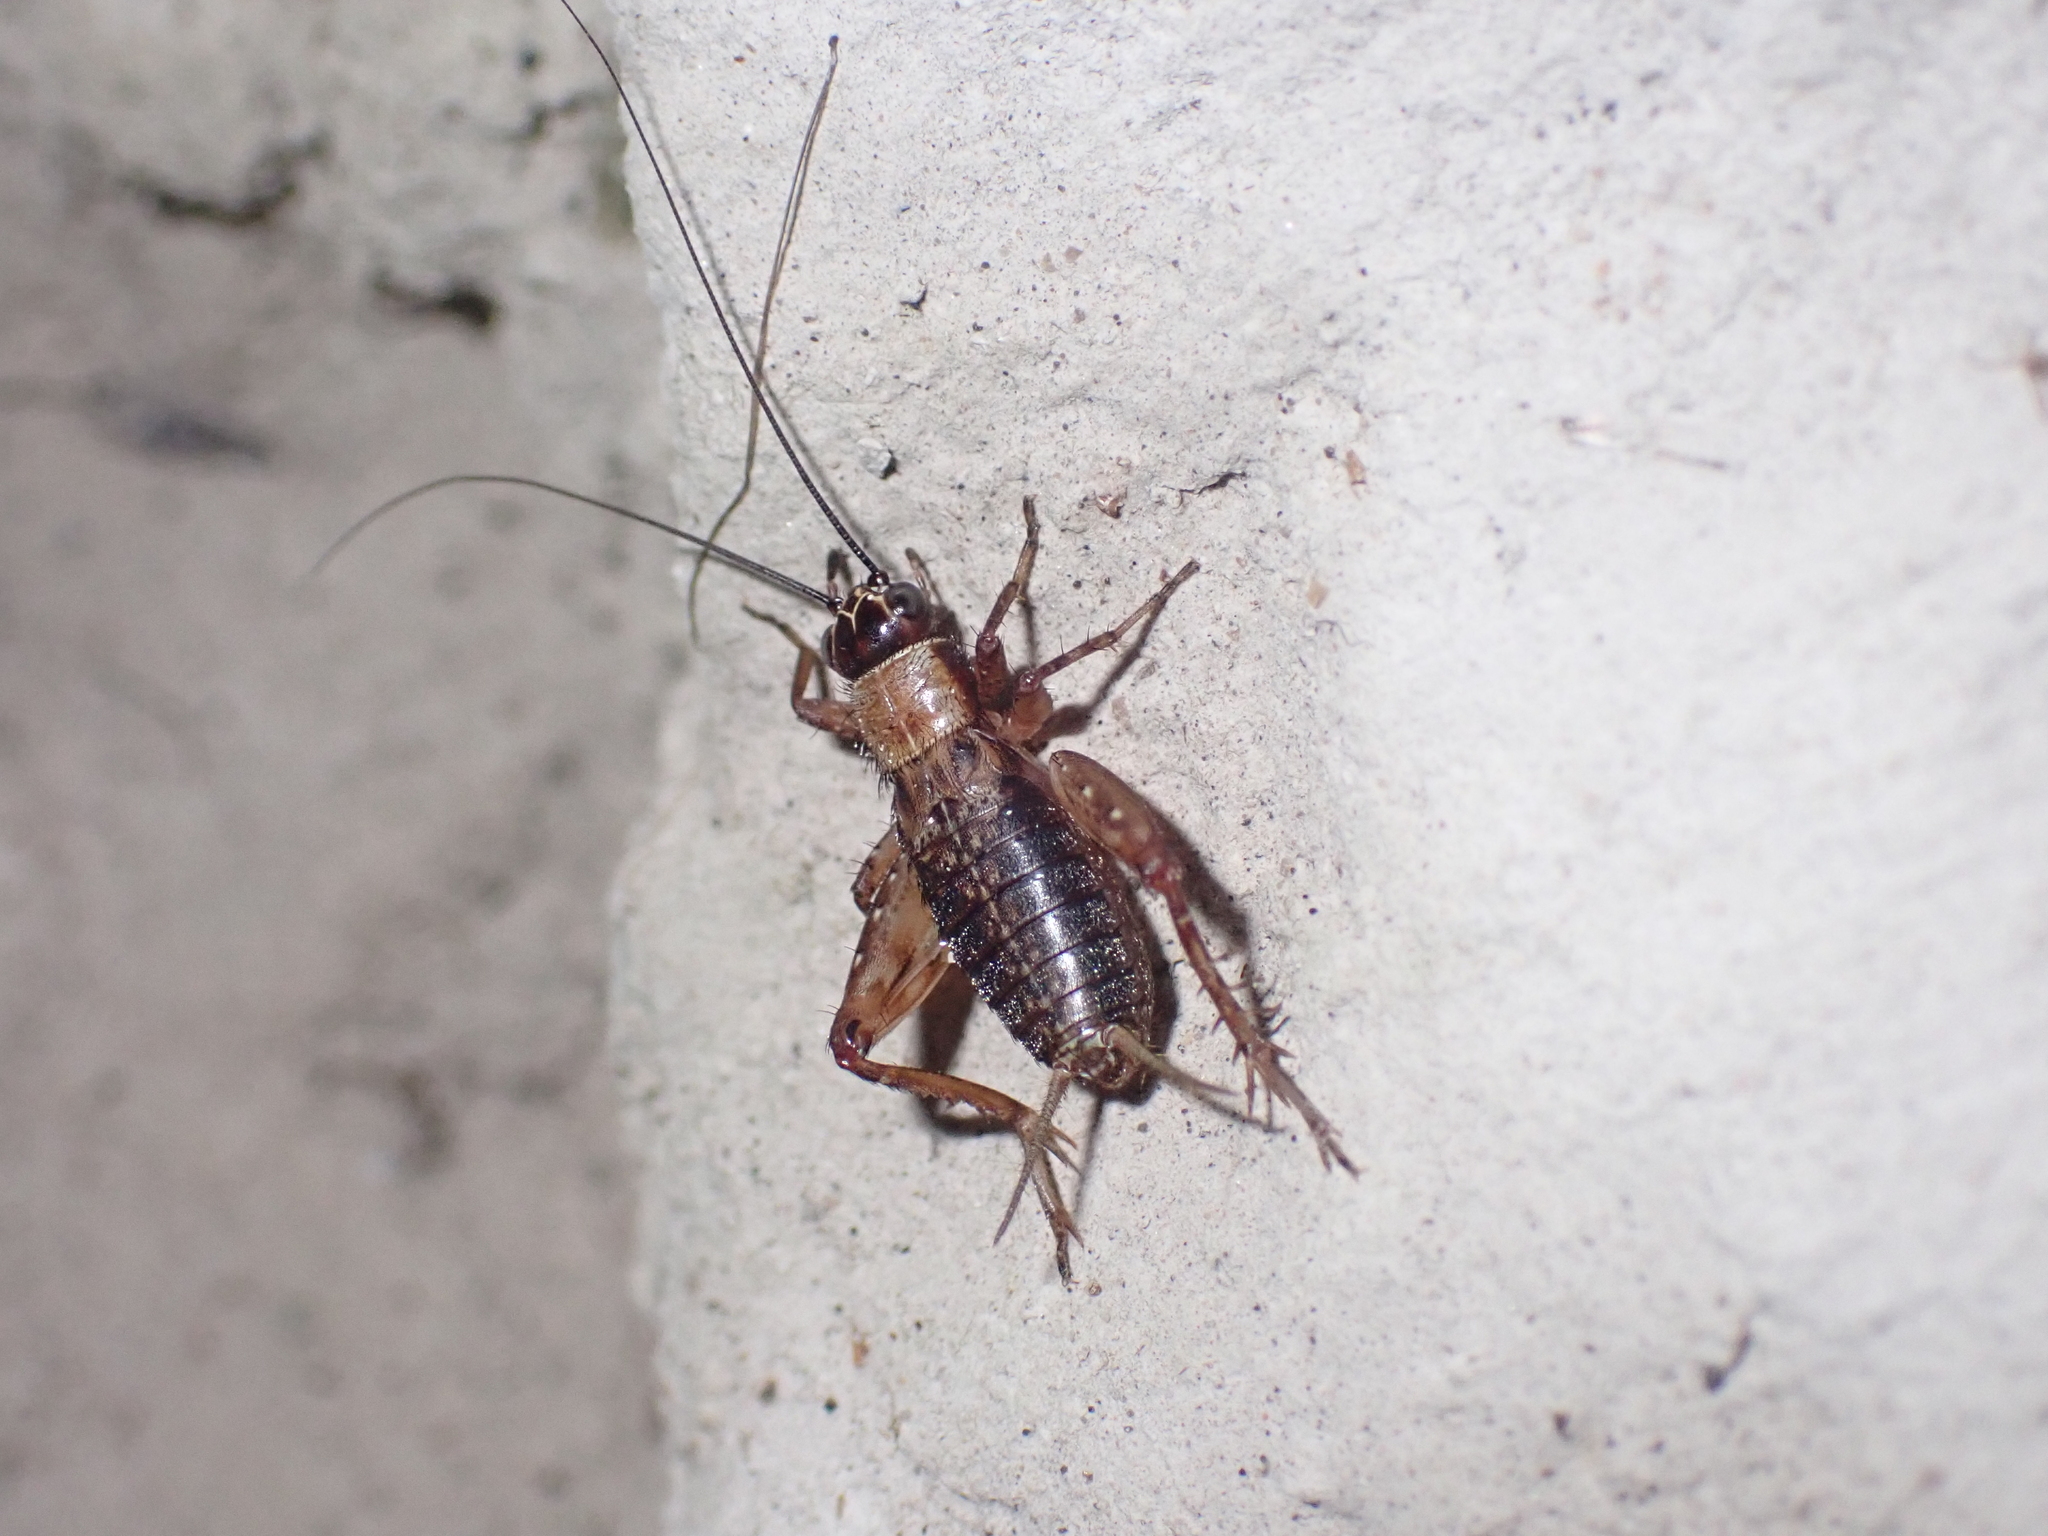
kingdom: Animalia
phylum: Arthropoda
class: Insecta
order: Orthoptera
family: Trigonidiidae
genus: Nemobius
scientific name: Nemobius sylvestris
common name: Wood-cricket
